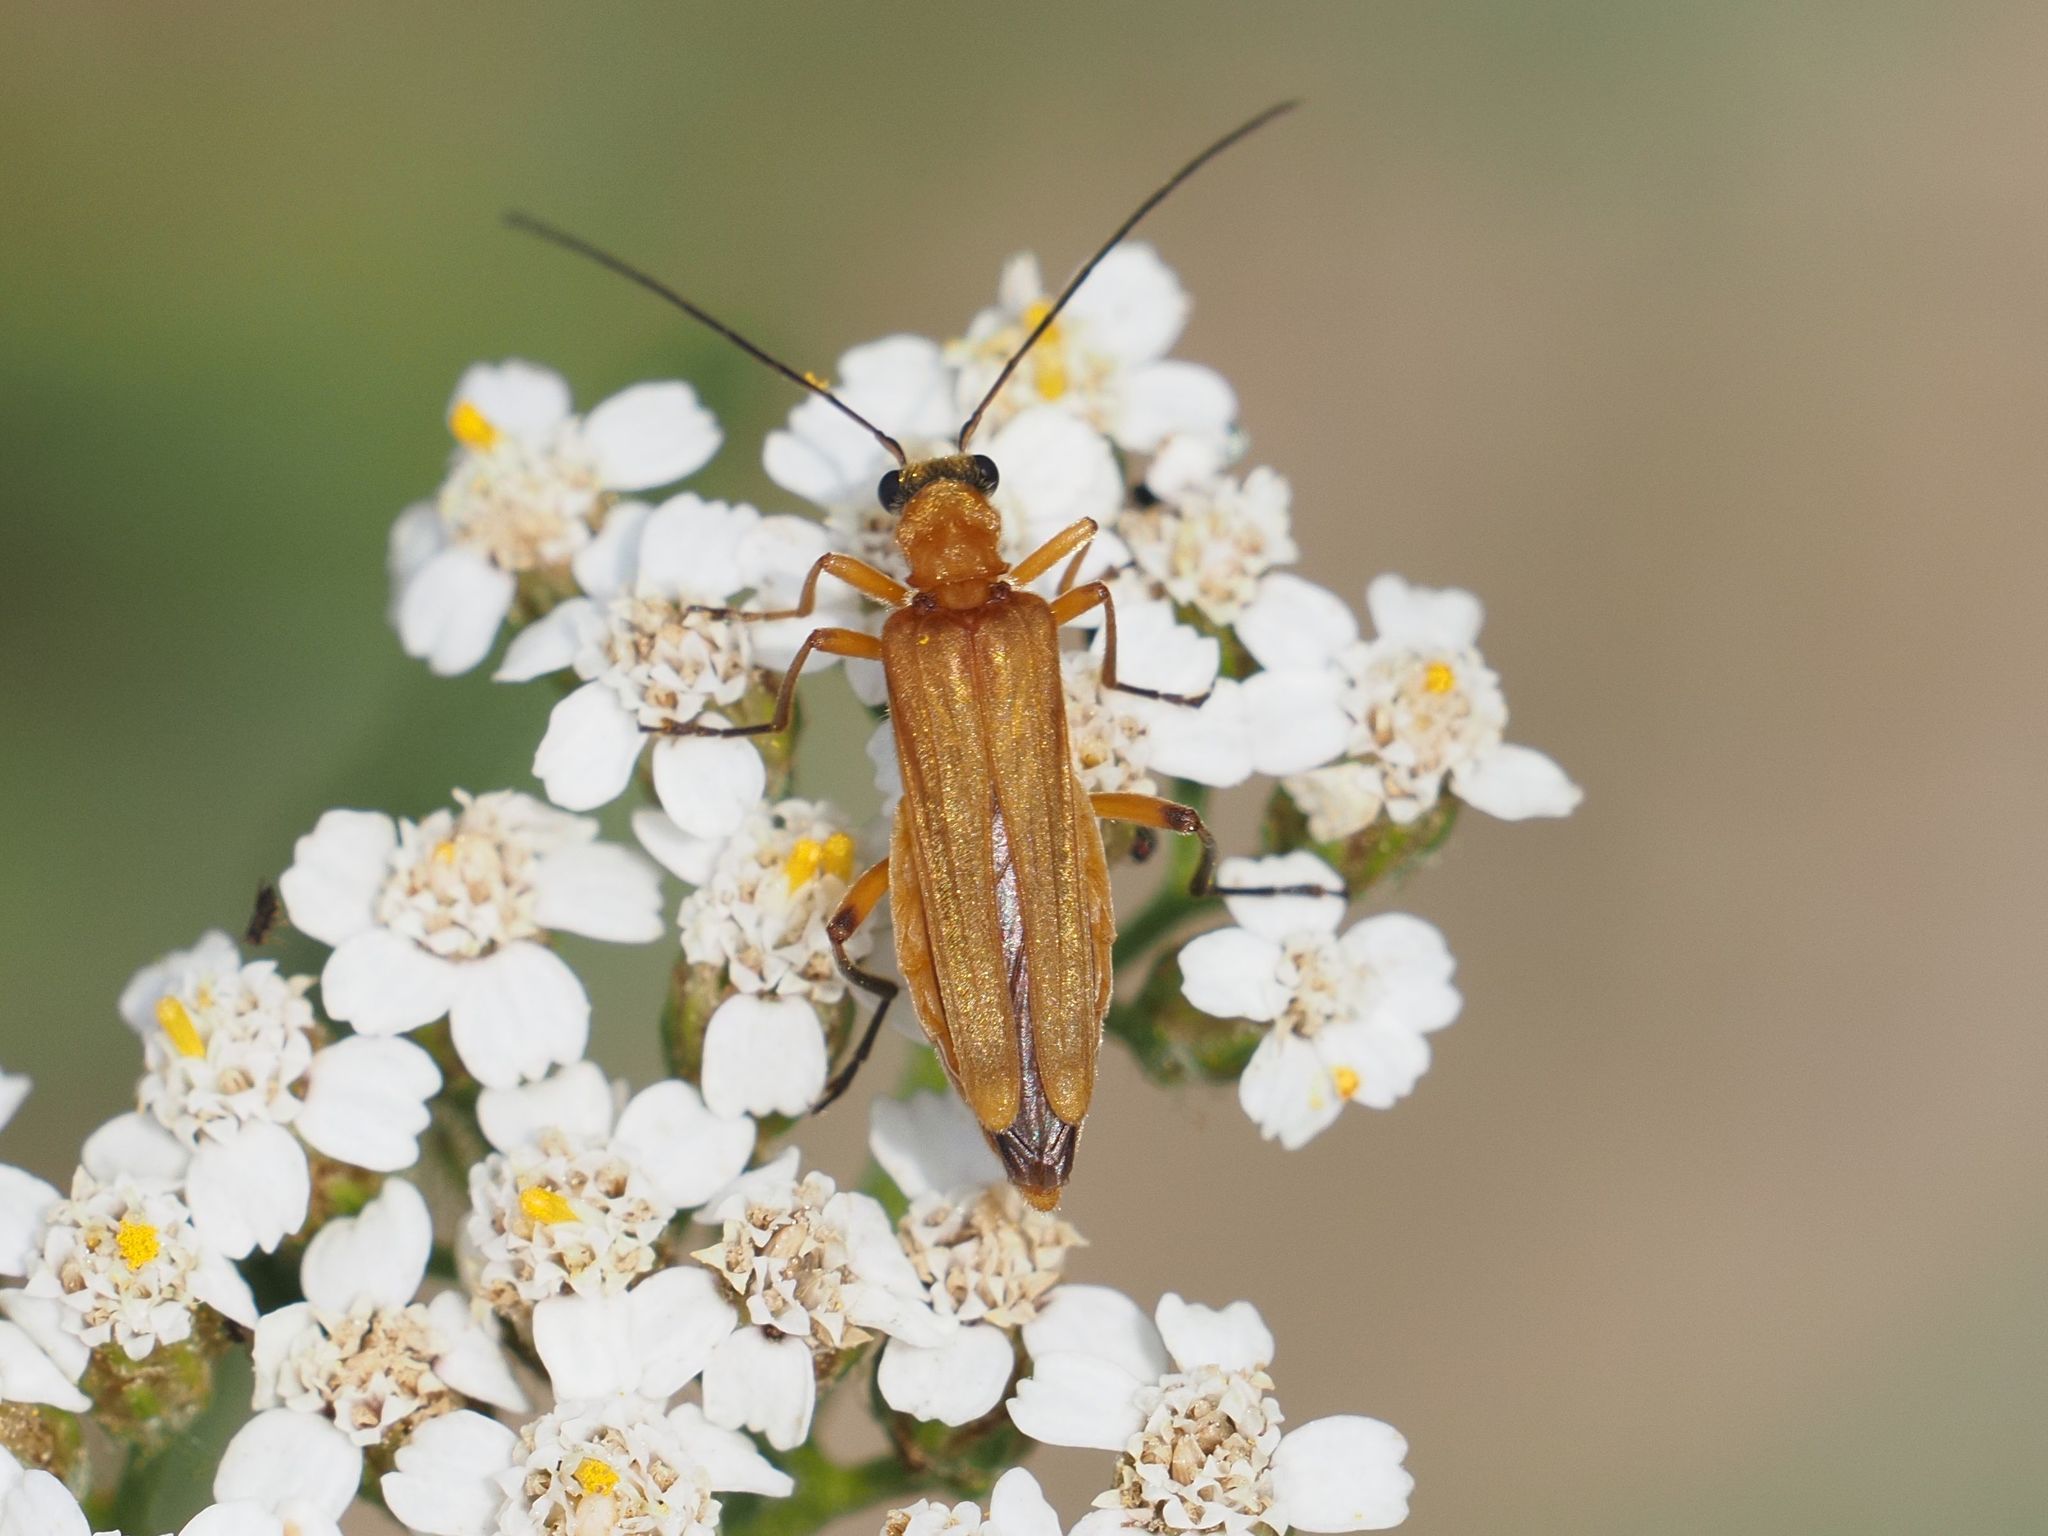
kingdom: Animalia
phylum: Arthropoda
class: Insecta
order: Coleoptera
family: Oedemeridae
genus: Oedemera
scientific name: Oedemera podagrariae
